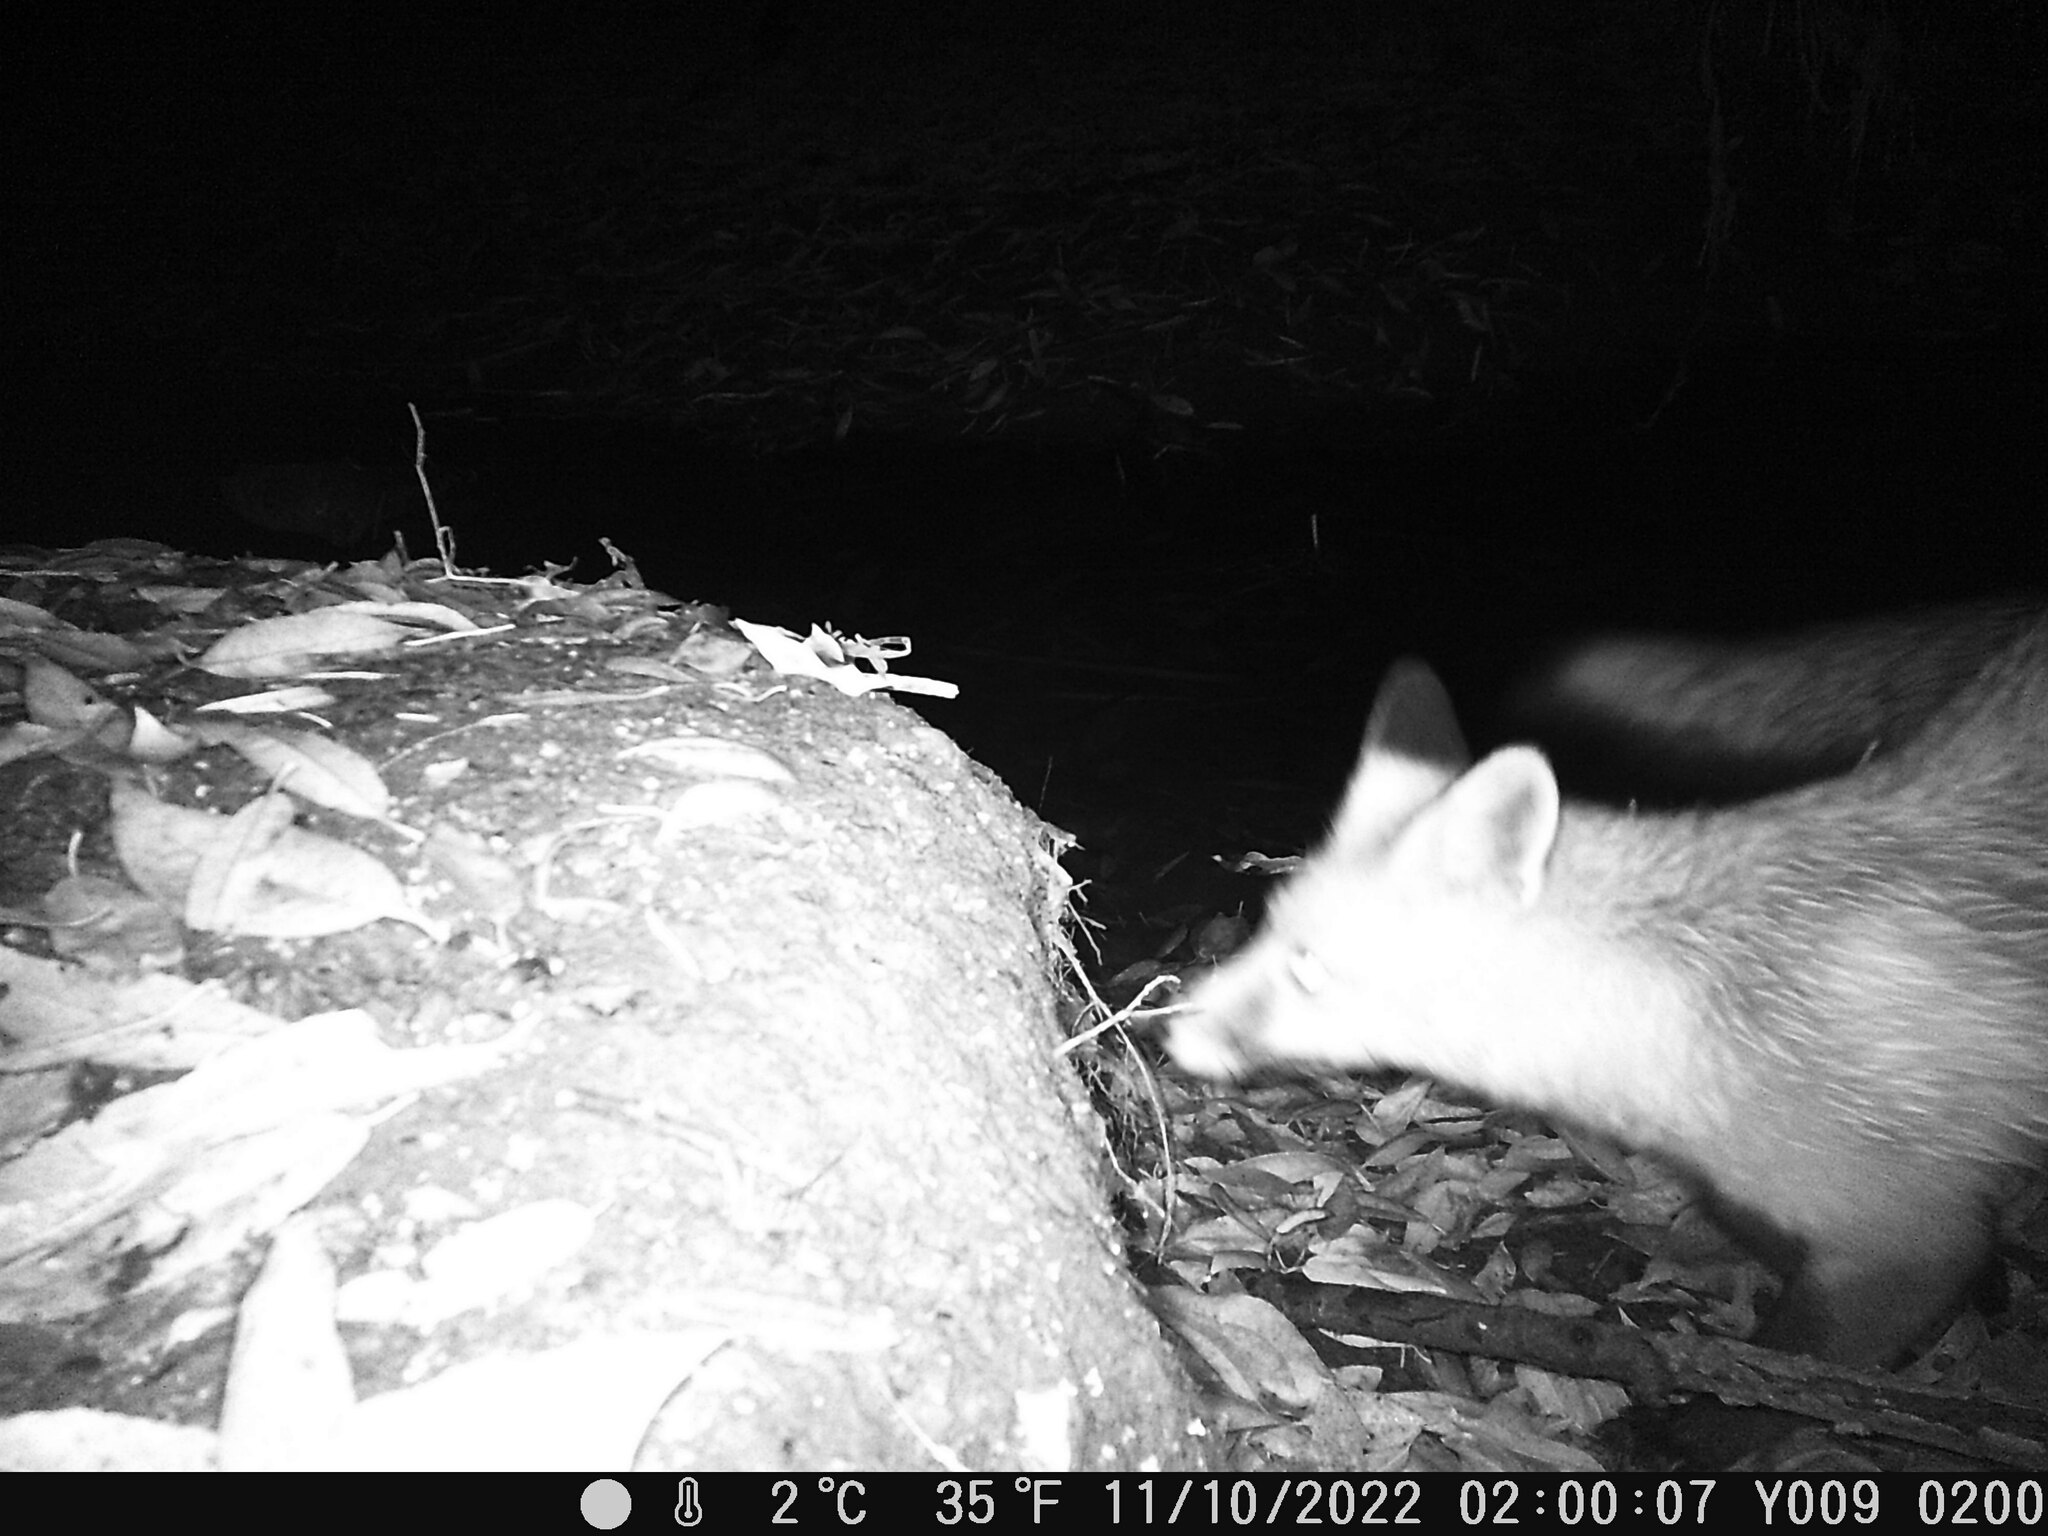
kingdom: Animalia
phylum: Chordata
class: Mammalia
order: Carnivora
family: Canidae
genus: Vulpes
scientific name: Vulpes vulpes
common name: Red fox
